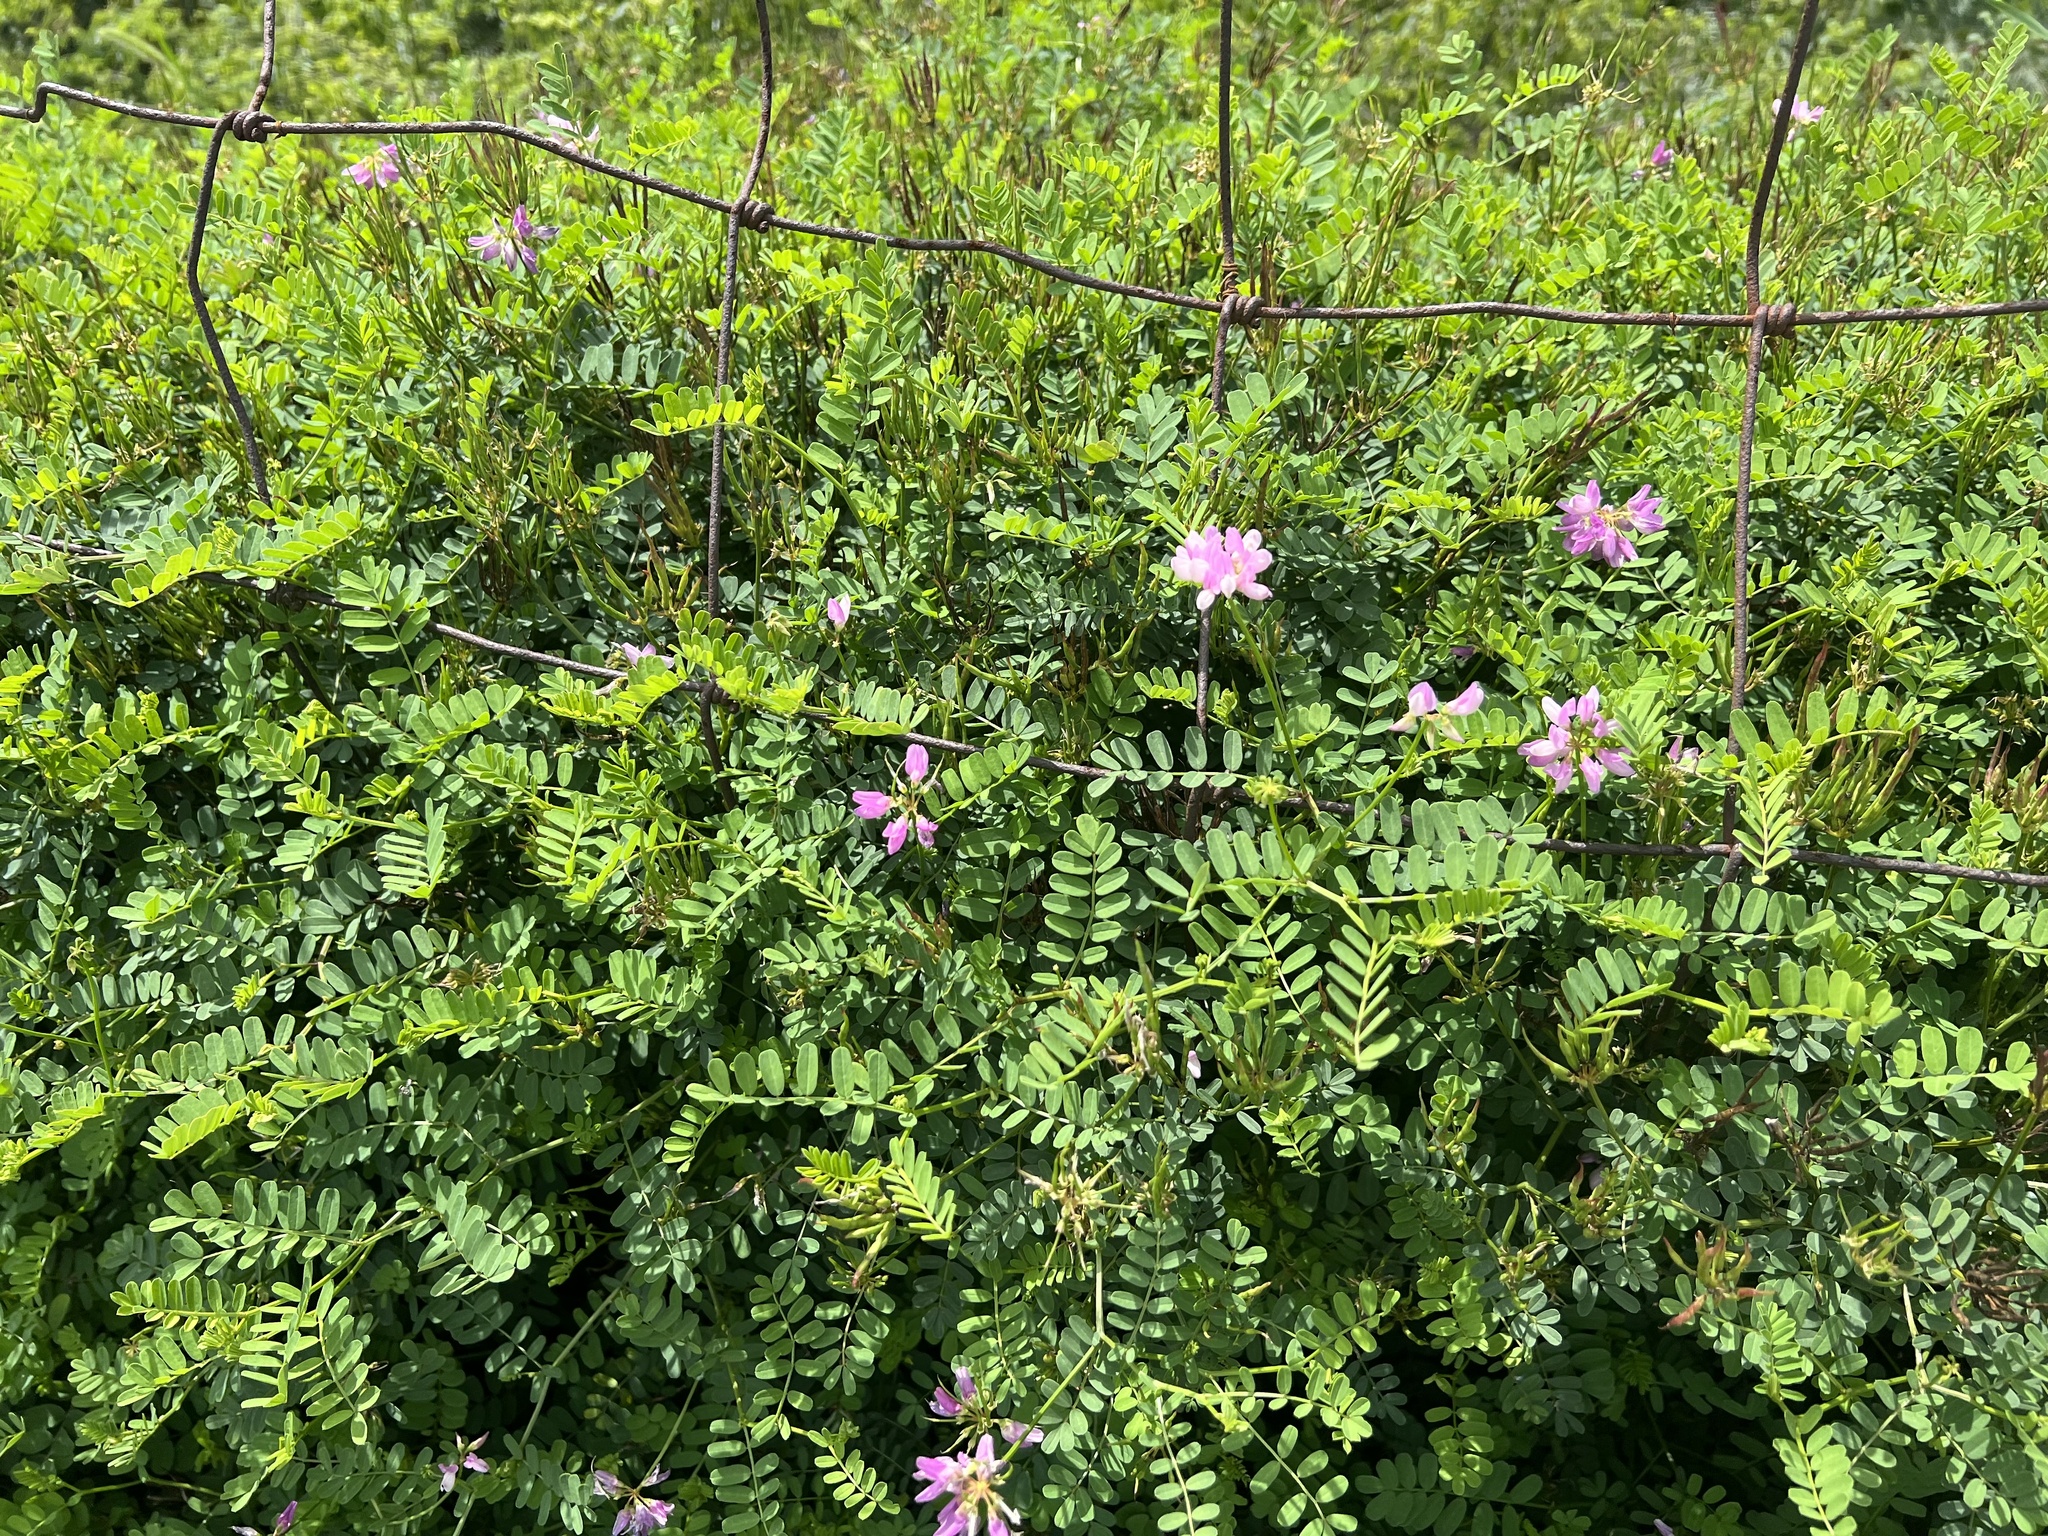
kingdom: Plantae
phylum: Tracheophyta
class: Magnoliopsida
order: Fabales
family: Fabaceae
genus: Coronilla
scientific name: Coronilla varia
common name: Crownvetch
